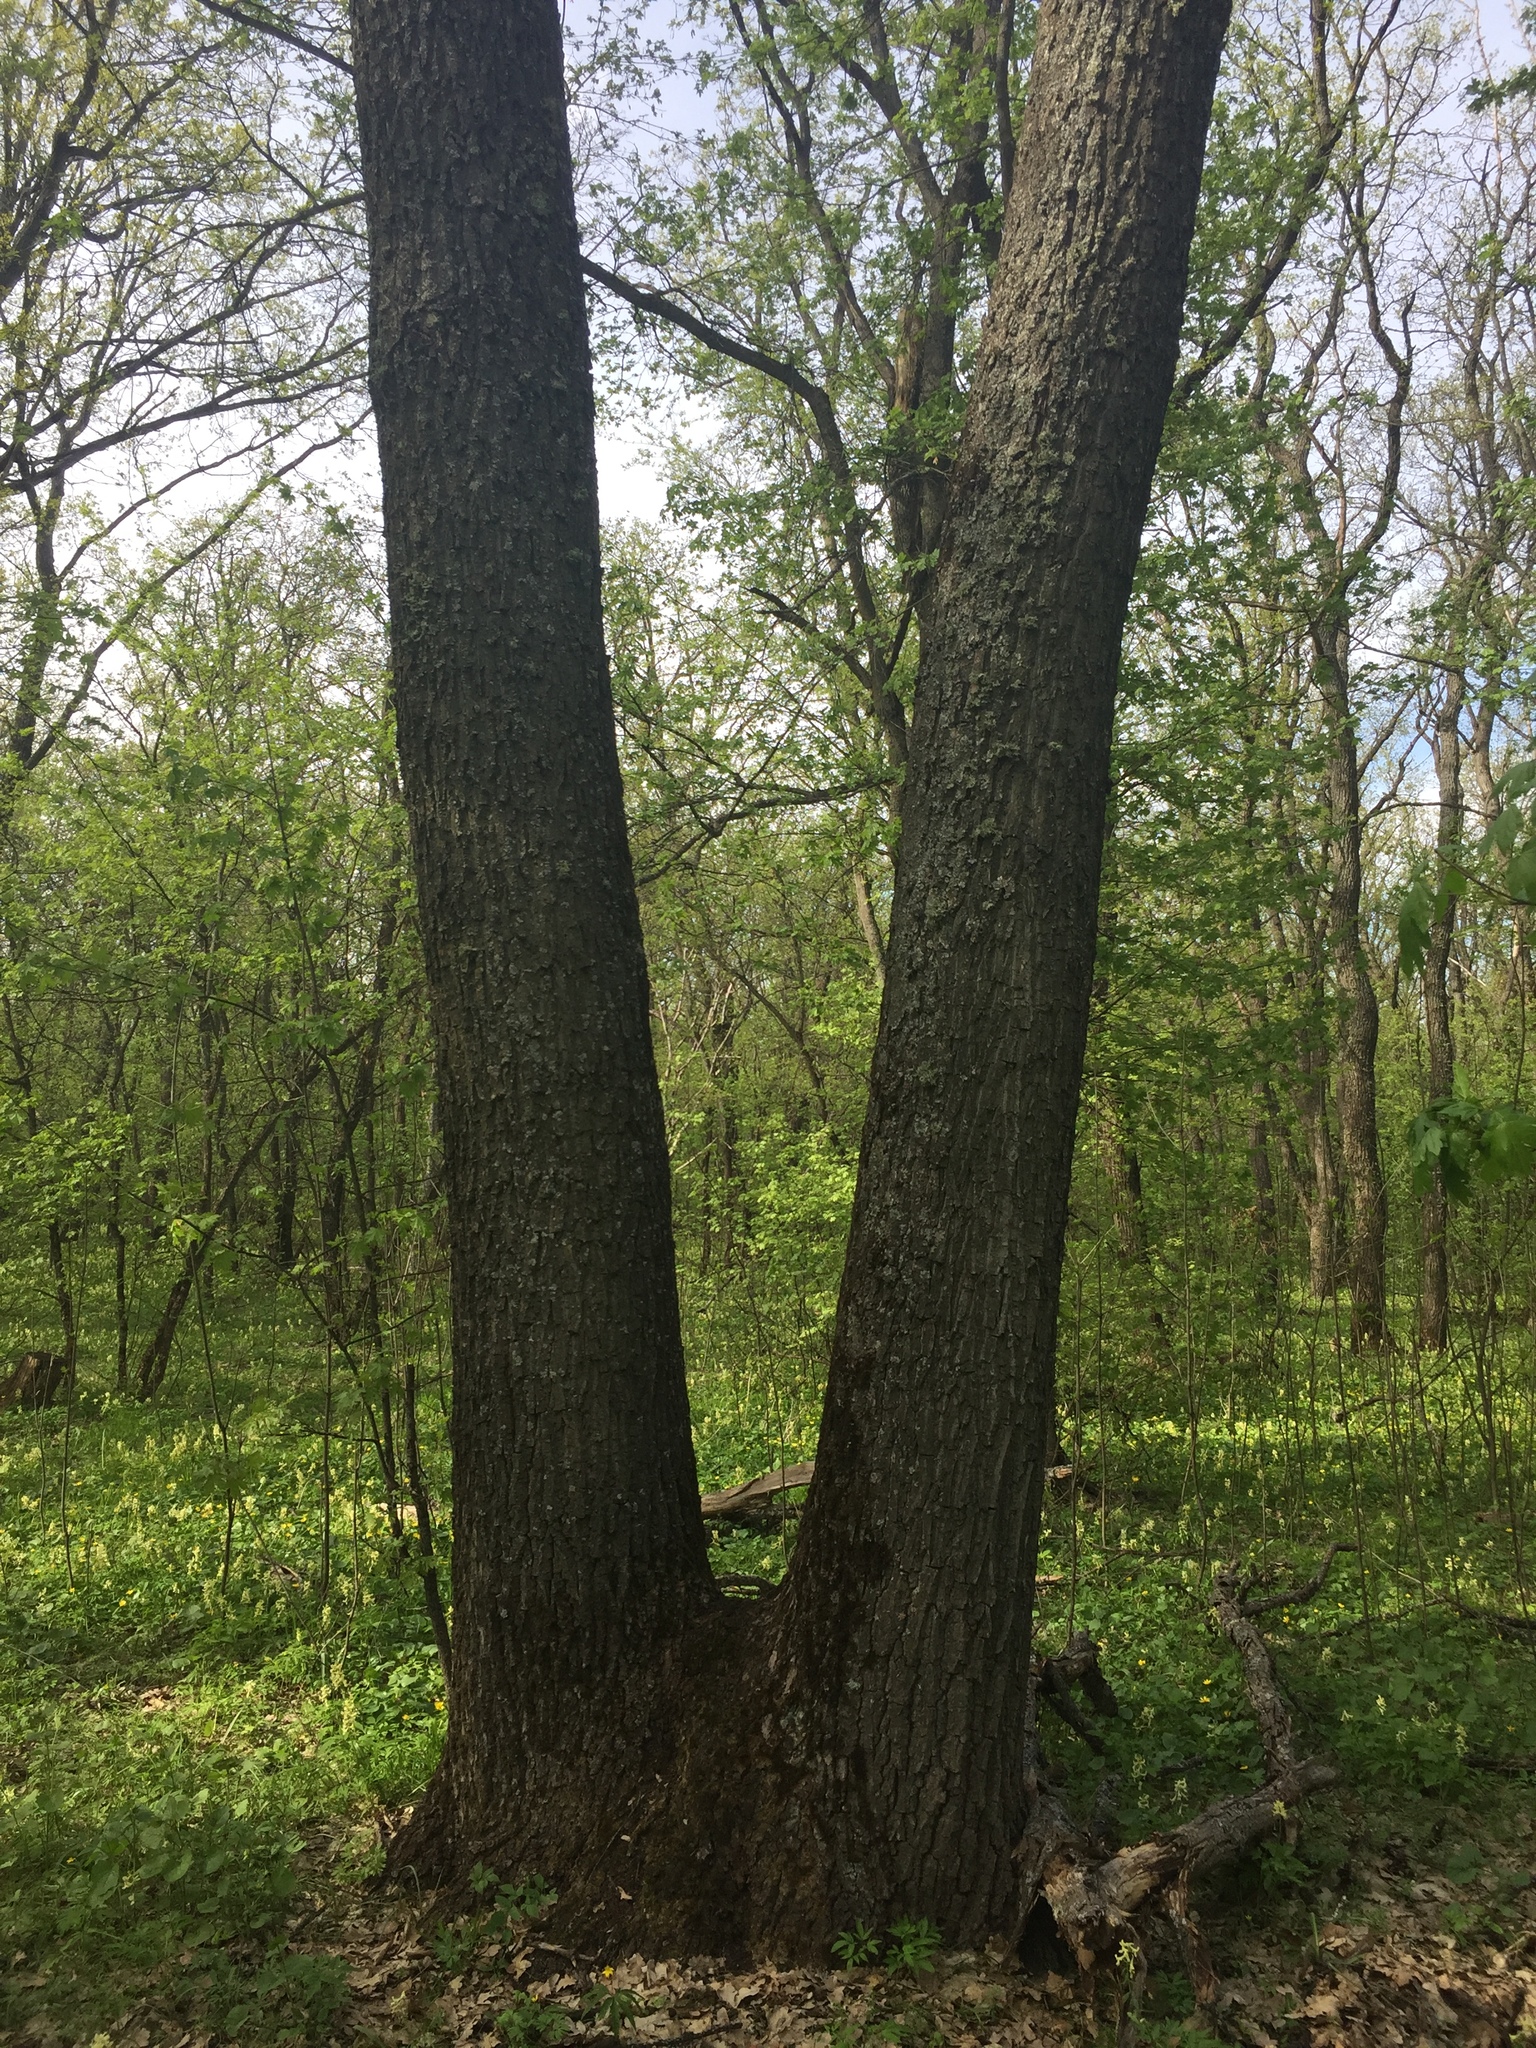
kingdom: Plantae
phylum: Tracheophyta
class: Magnoliopsida
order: Fagales
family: Fagaceae
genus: Quercus
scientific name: Quercus robur
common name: Pedunculate oak
